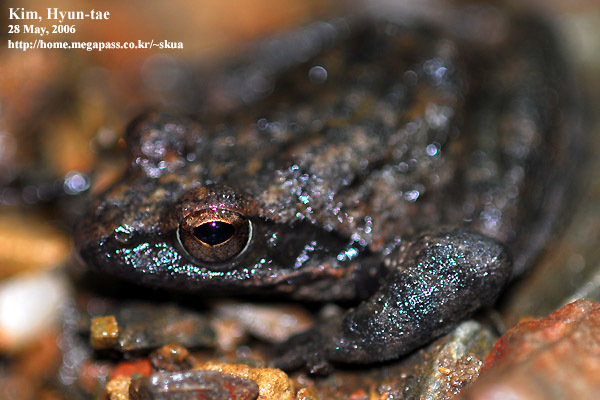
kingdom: Animalia
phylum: Chordata
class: Amphibia
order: Anura
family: Ranidae
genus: Rana
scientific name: Rana huanrenensis
